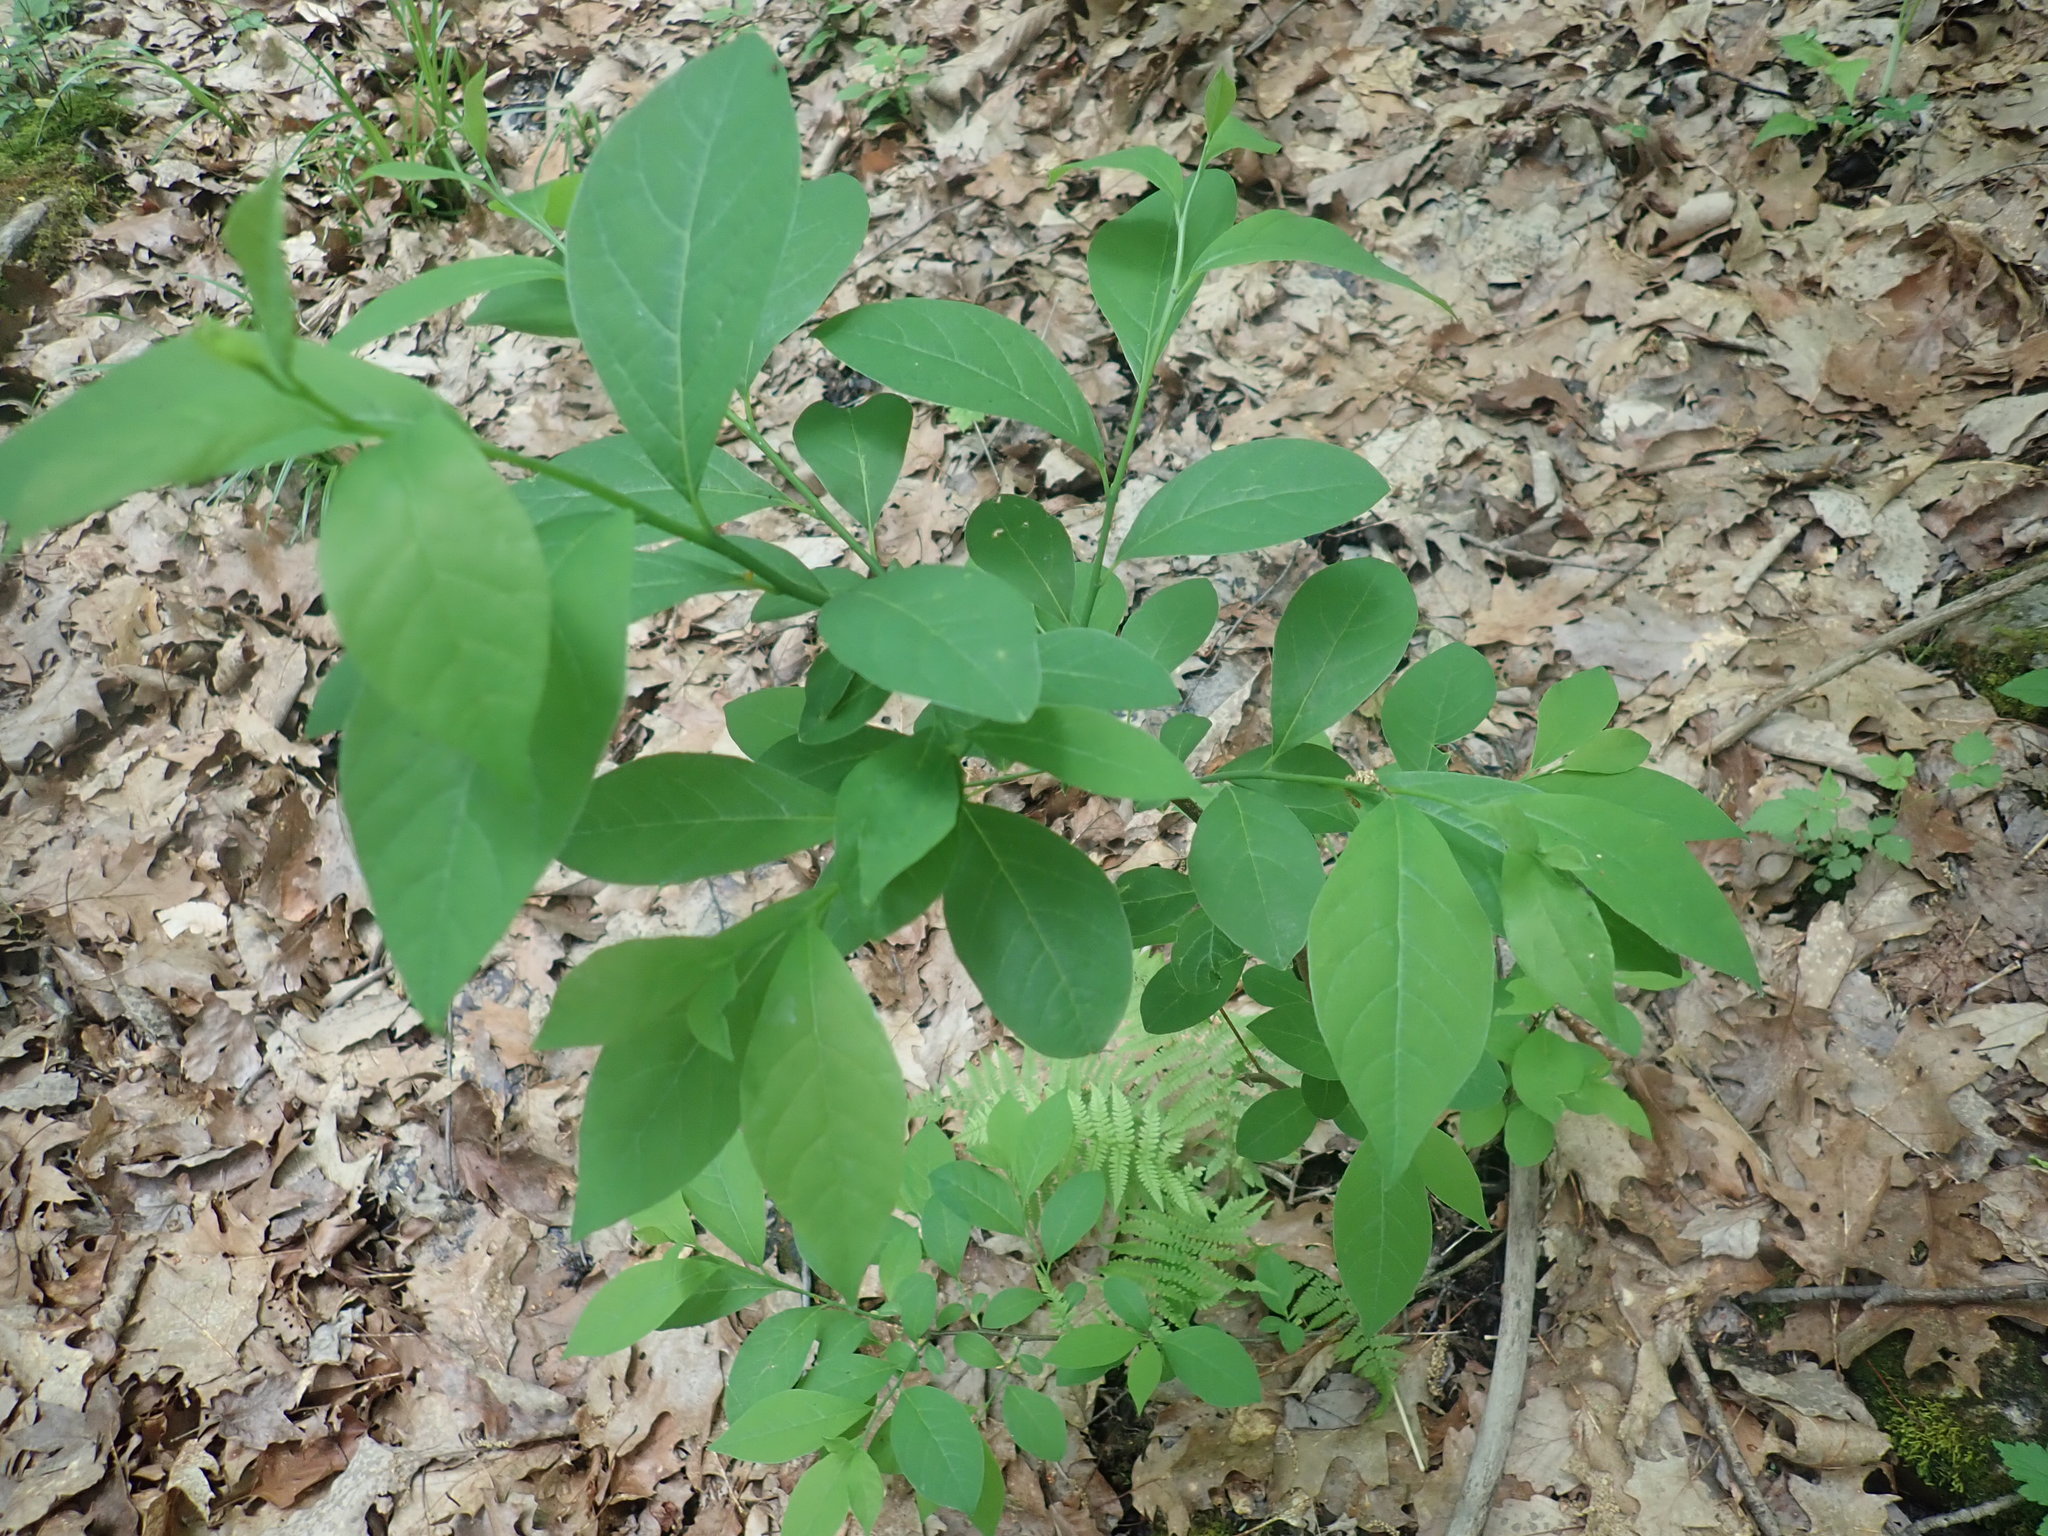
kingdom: Plantae
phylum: Tracheophyta
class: Magnoliopsida
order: Laurales
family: Lauraceae
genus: Lindera
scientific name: Lindera benzoin
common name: Spicebush
